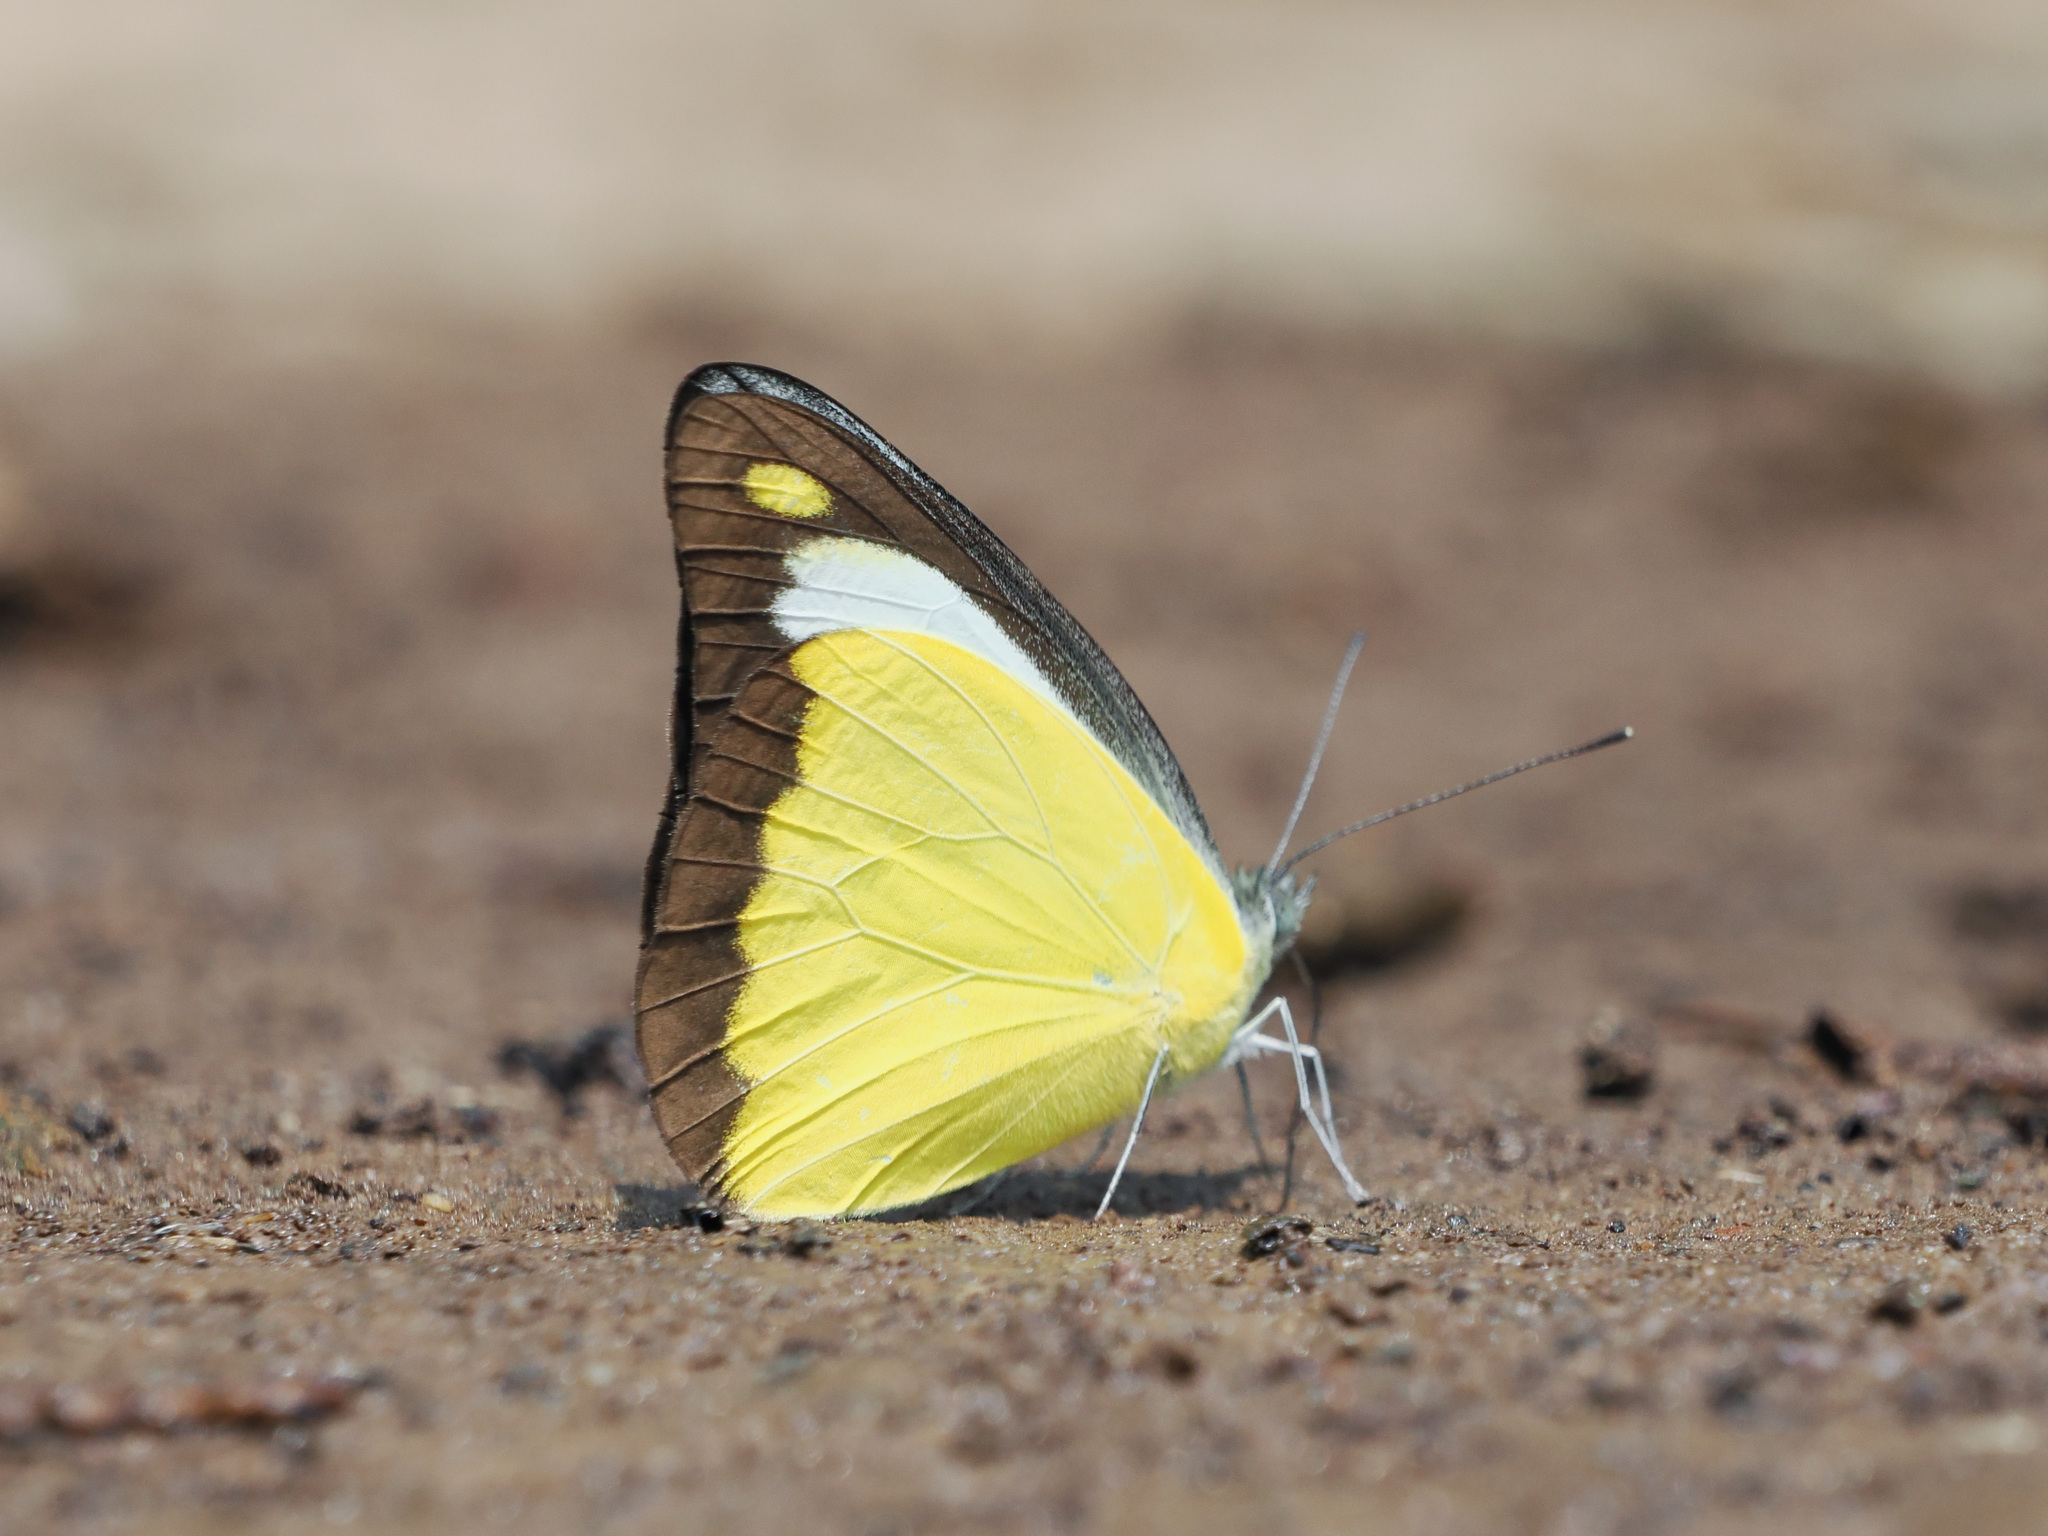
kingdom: Animalia
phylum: Arthropoda
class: Insecta
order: Lepidoptera
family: Pieridae
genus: Appias
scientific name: Appias lyncida
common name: Chocolate albatross
